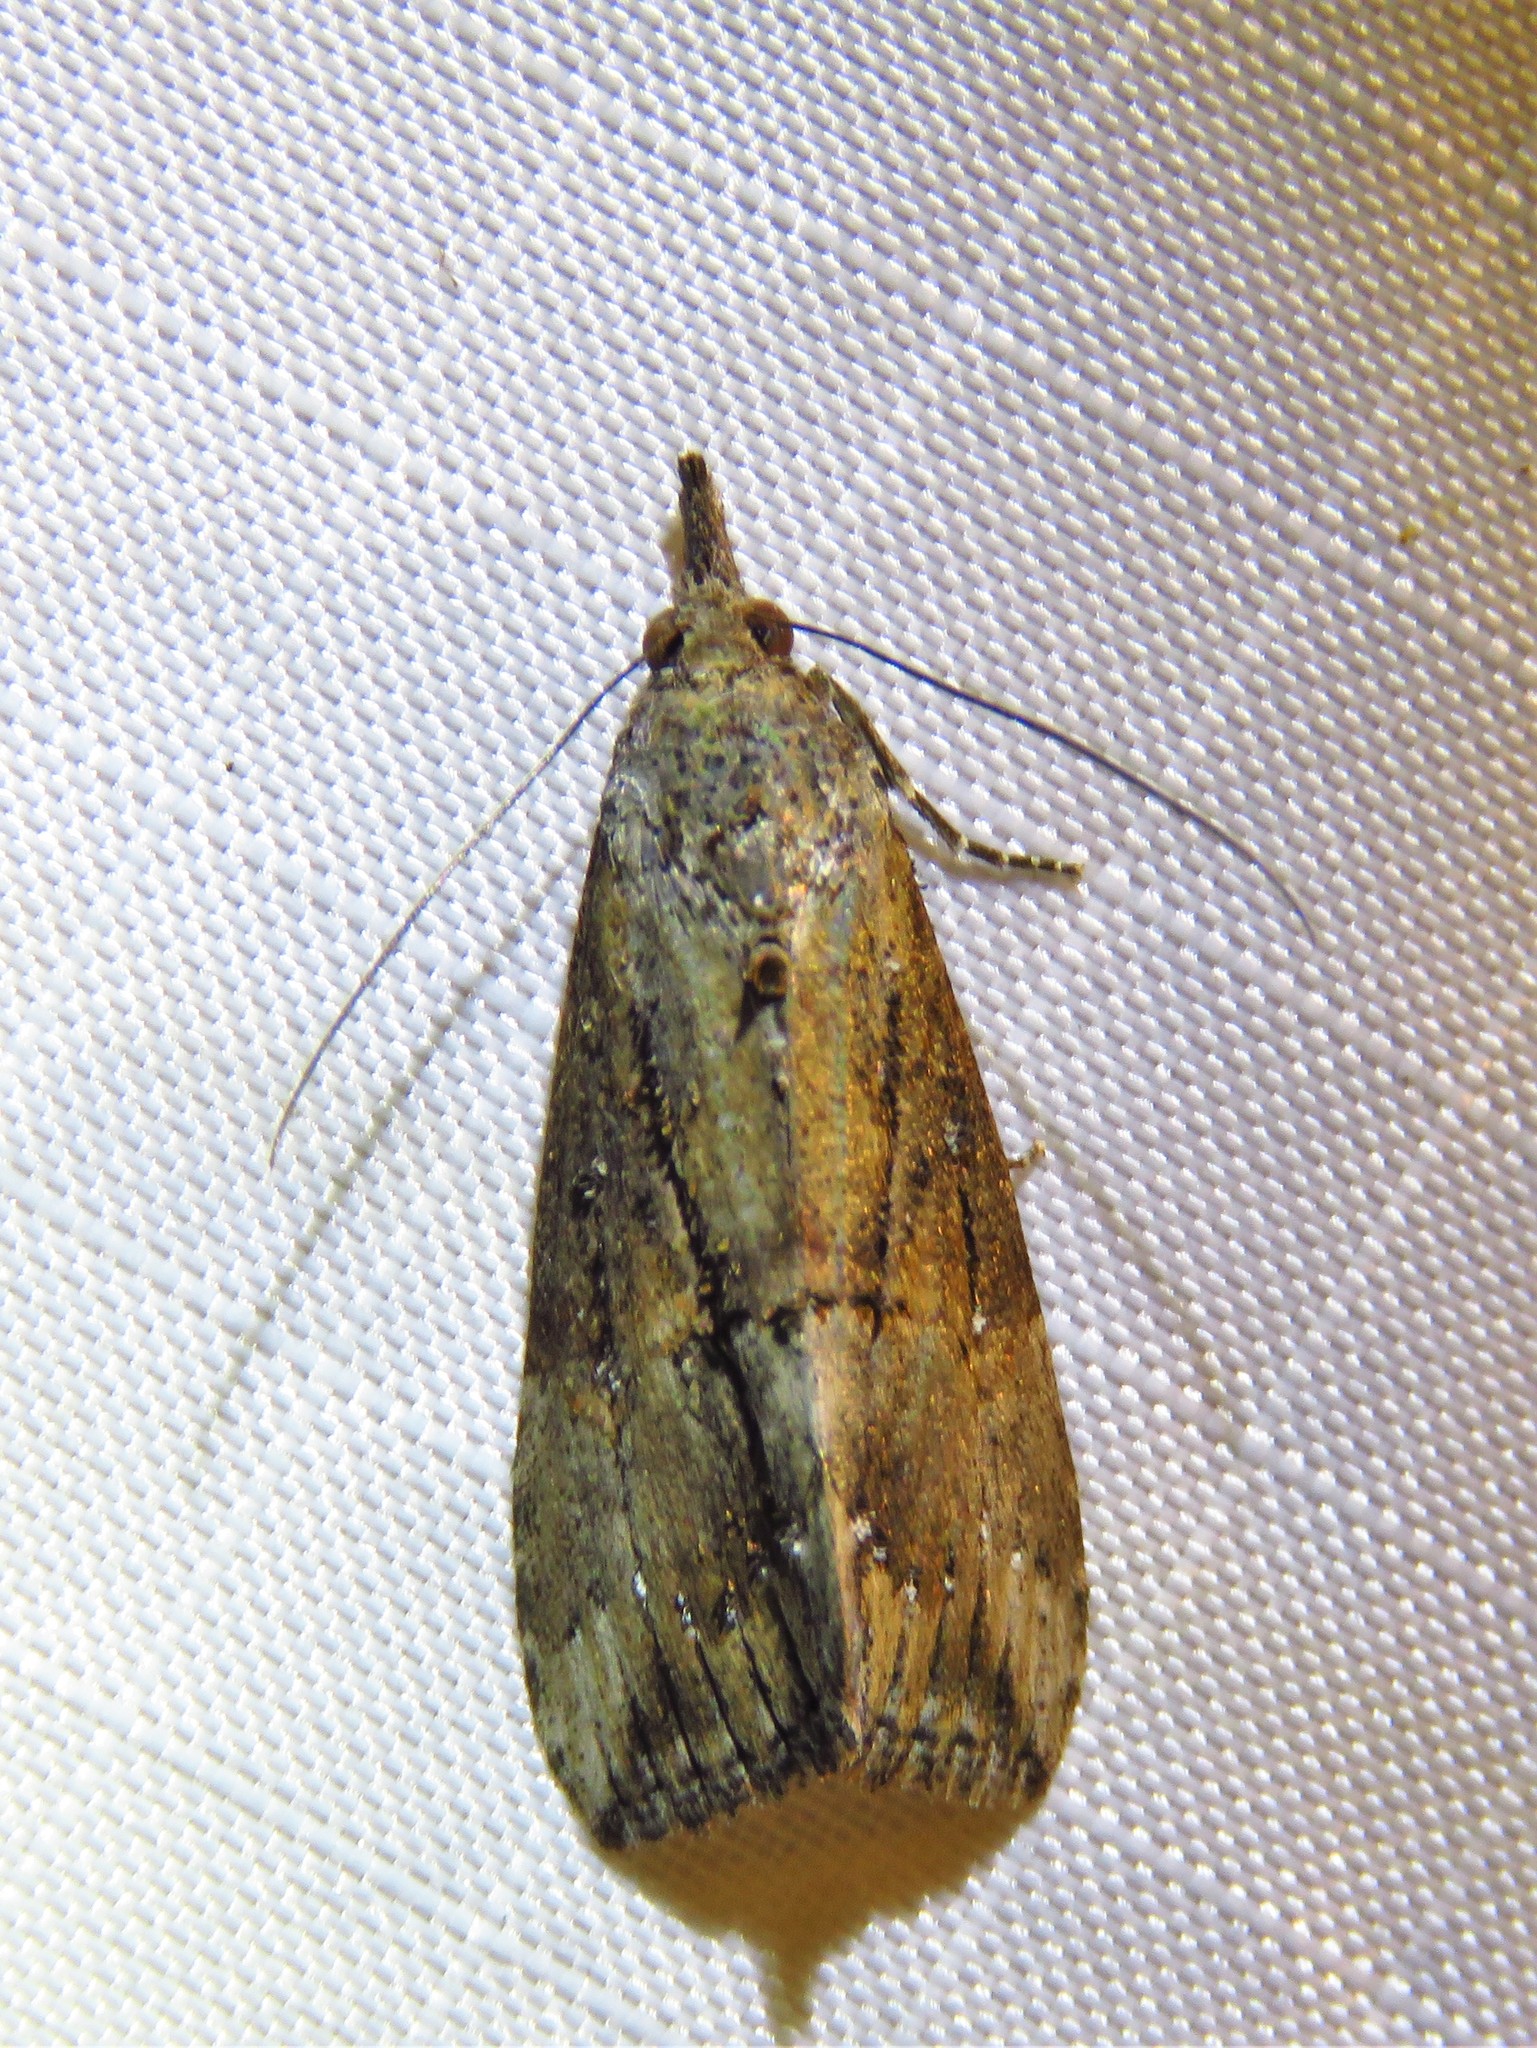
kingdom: Animalia
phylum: Arthropoda
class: Insecta
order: Lepidoptera
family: Erebidae
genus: Hypena
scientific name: Hypena scabra
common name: Green cloverworm
